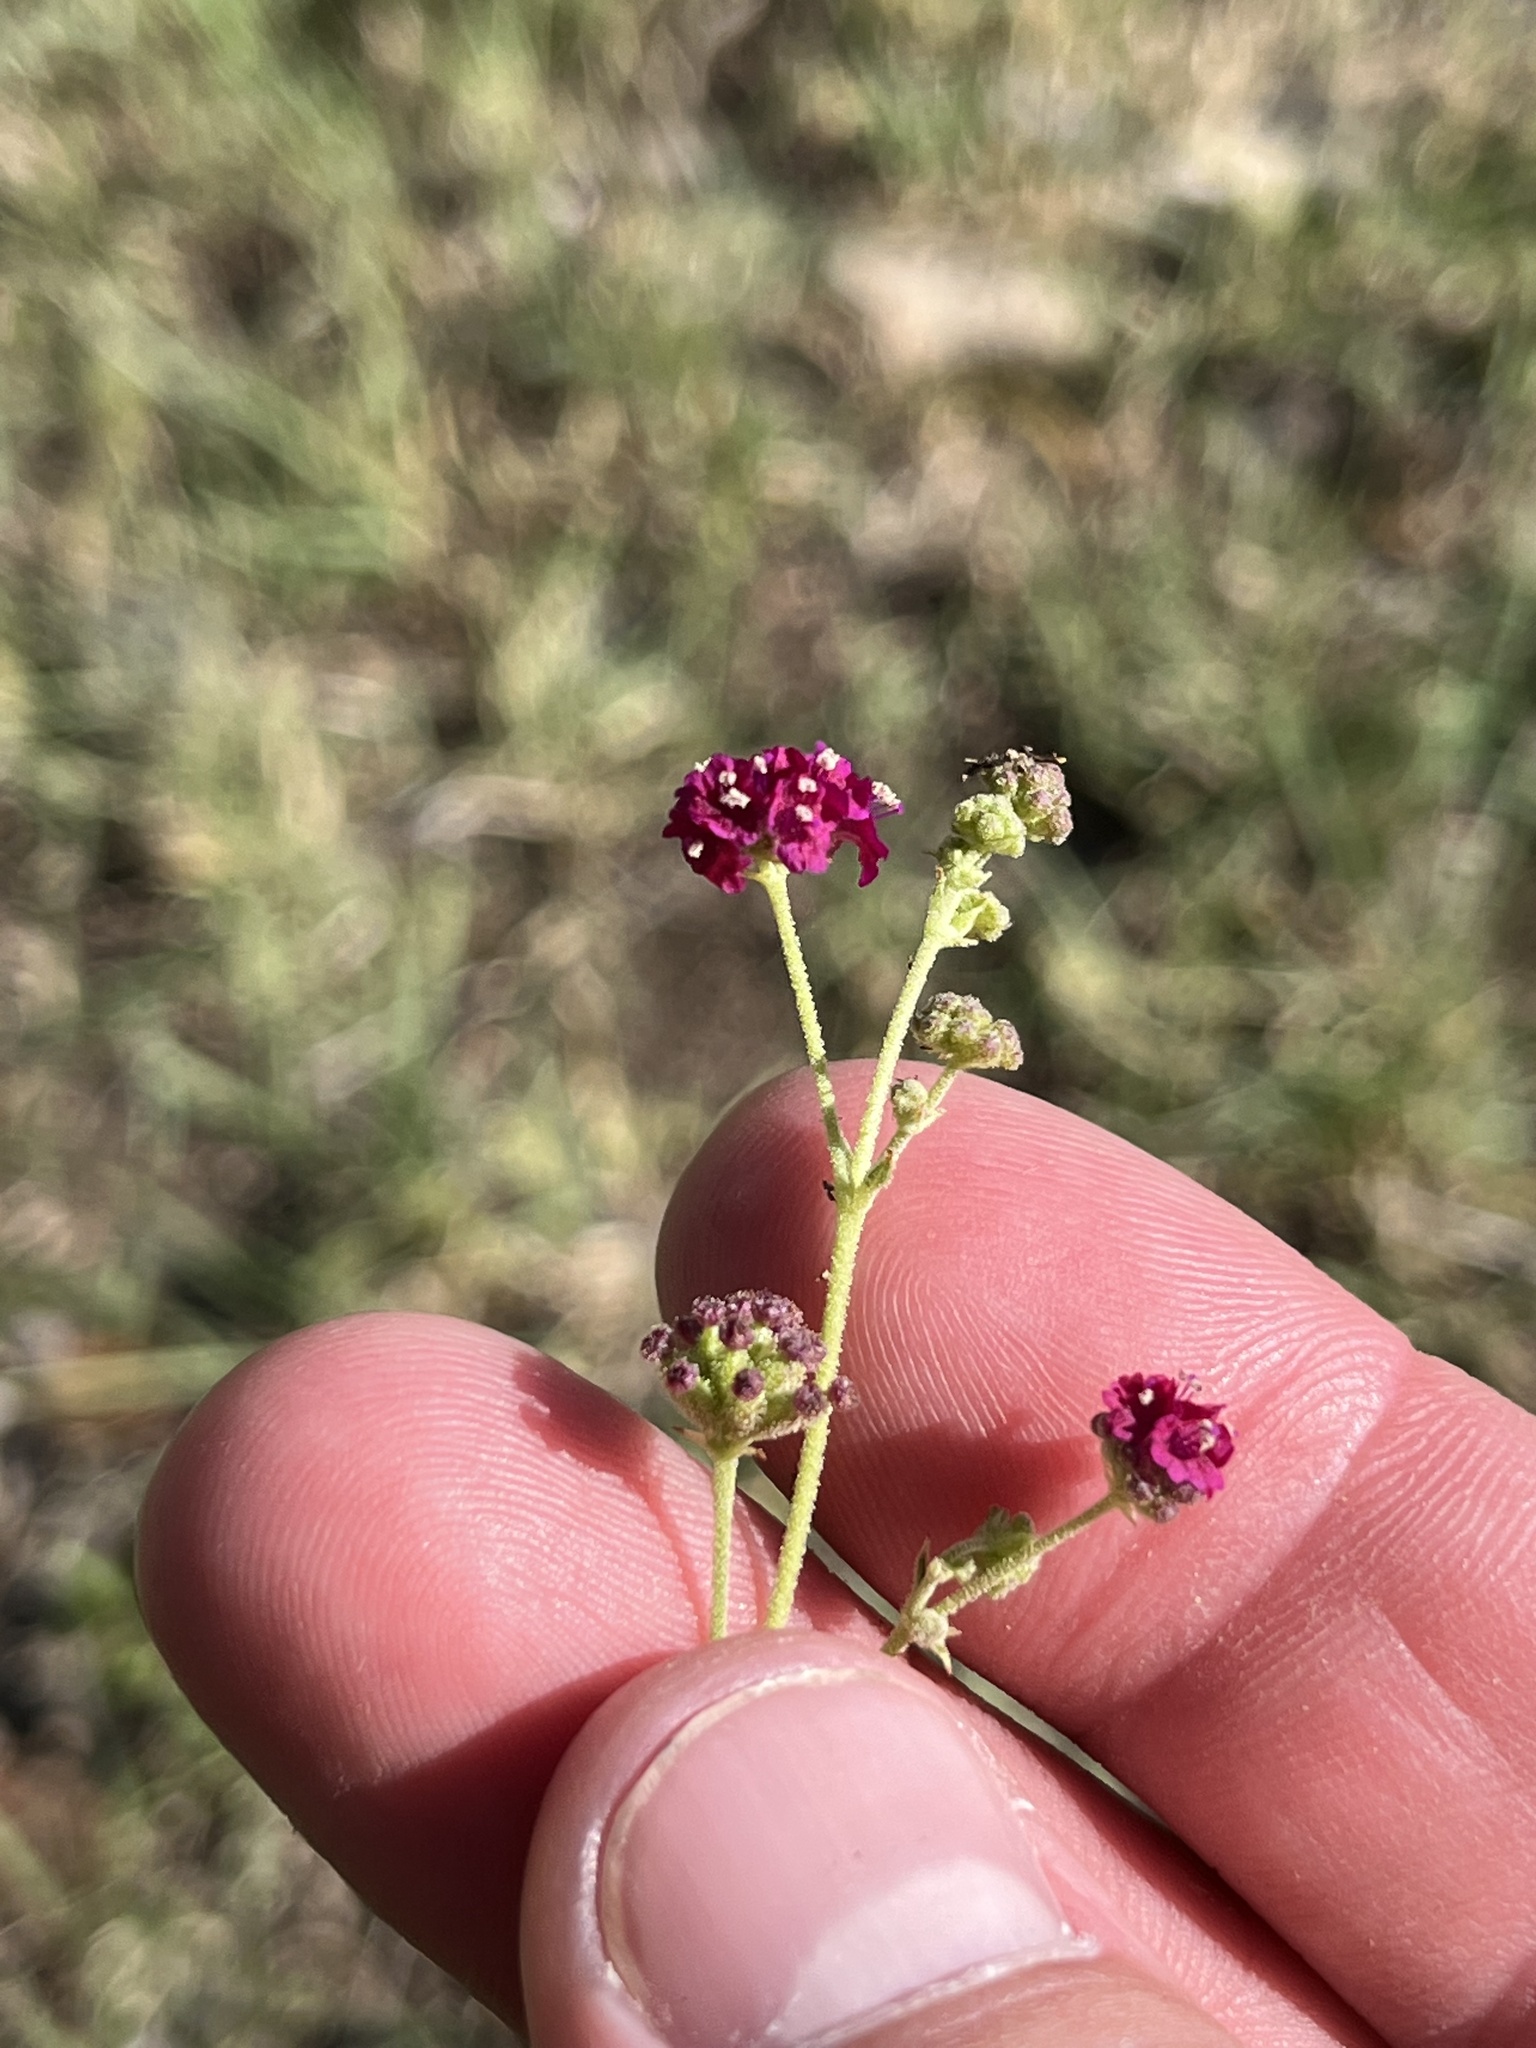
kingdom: Plantae
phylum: Tracheophyta
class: Magnoliopsida
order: Caryophyllales
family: Nyctaginaceae
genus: Boerhavia
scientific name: Boerhavia coccinea
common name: Scarlet spiderling
